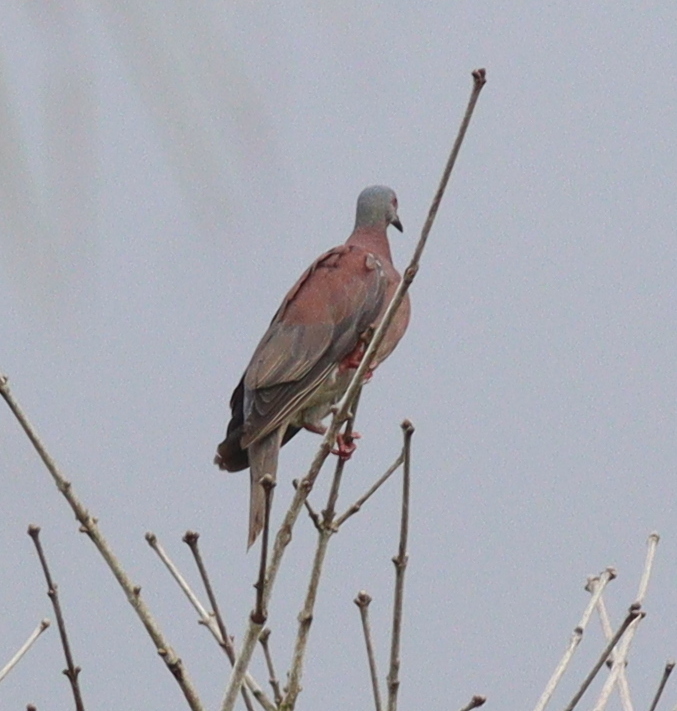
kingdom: Animalia
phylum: Chordata
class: Aves
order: Columbiformes
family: Columbidae
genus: Patagioenas
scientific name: Patagioenas cayennensis
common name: Pale-vented pigeon
